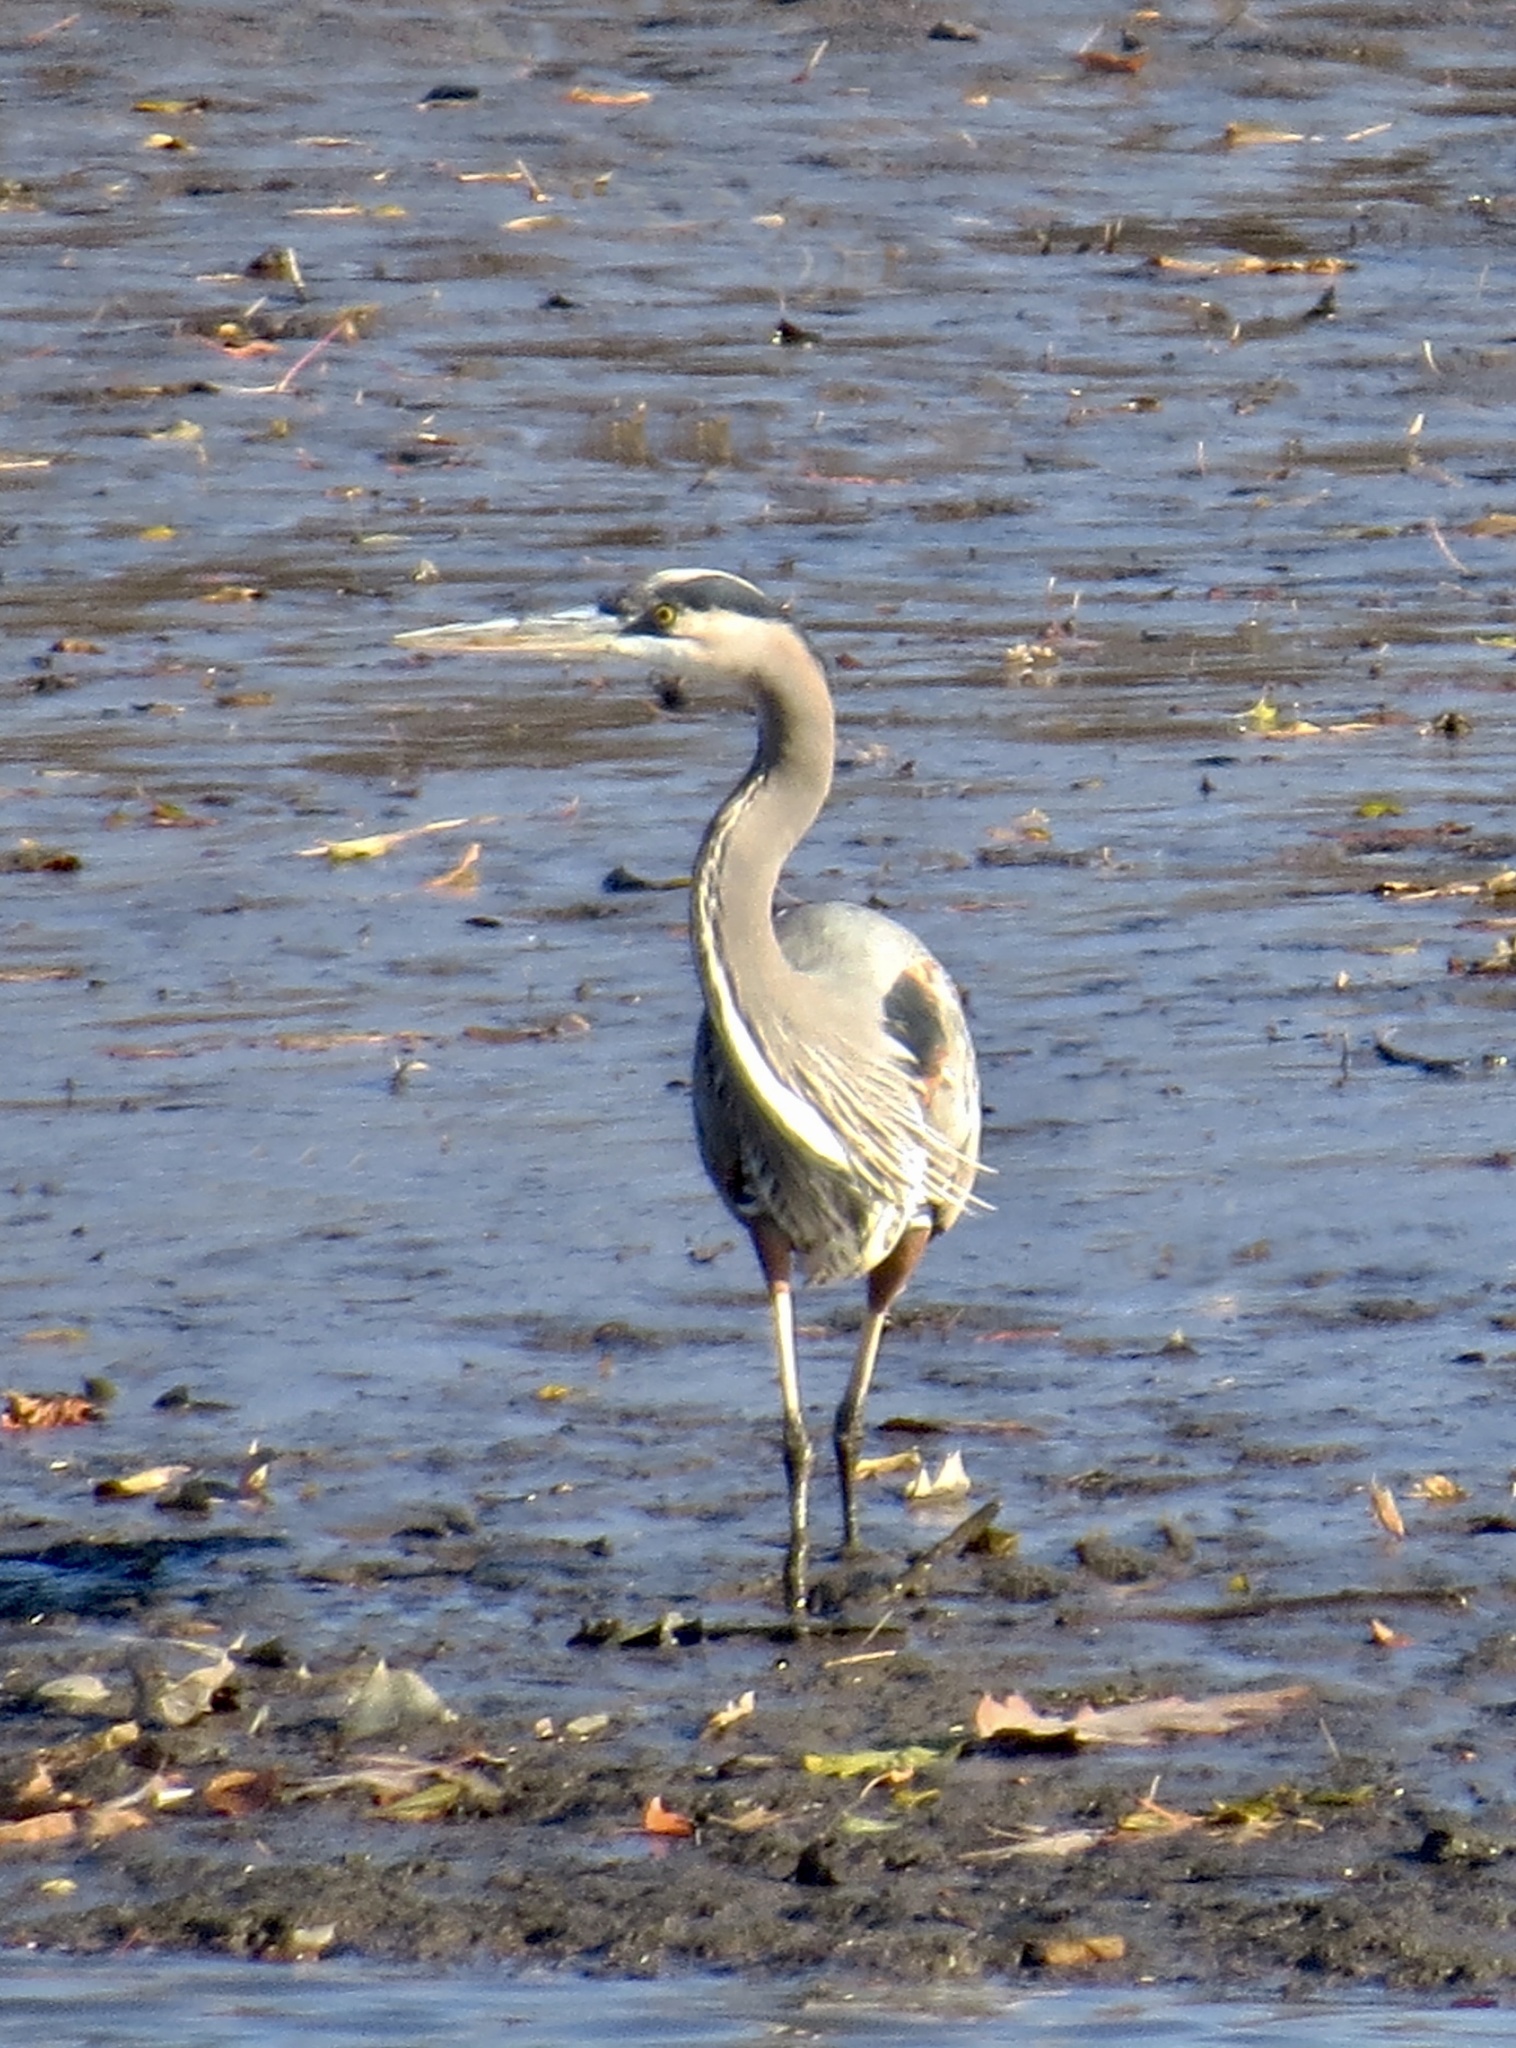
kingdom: Animalia
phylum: Chordata
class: Aves
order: Pelecaniformes
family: Ardeidae
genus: Ardea
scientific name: Ardea herodias
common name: Great blue heron
